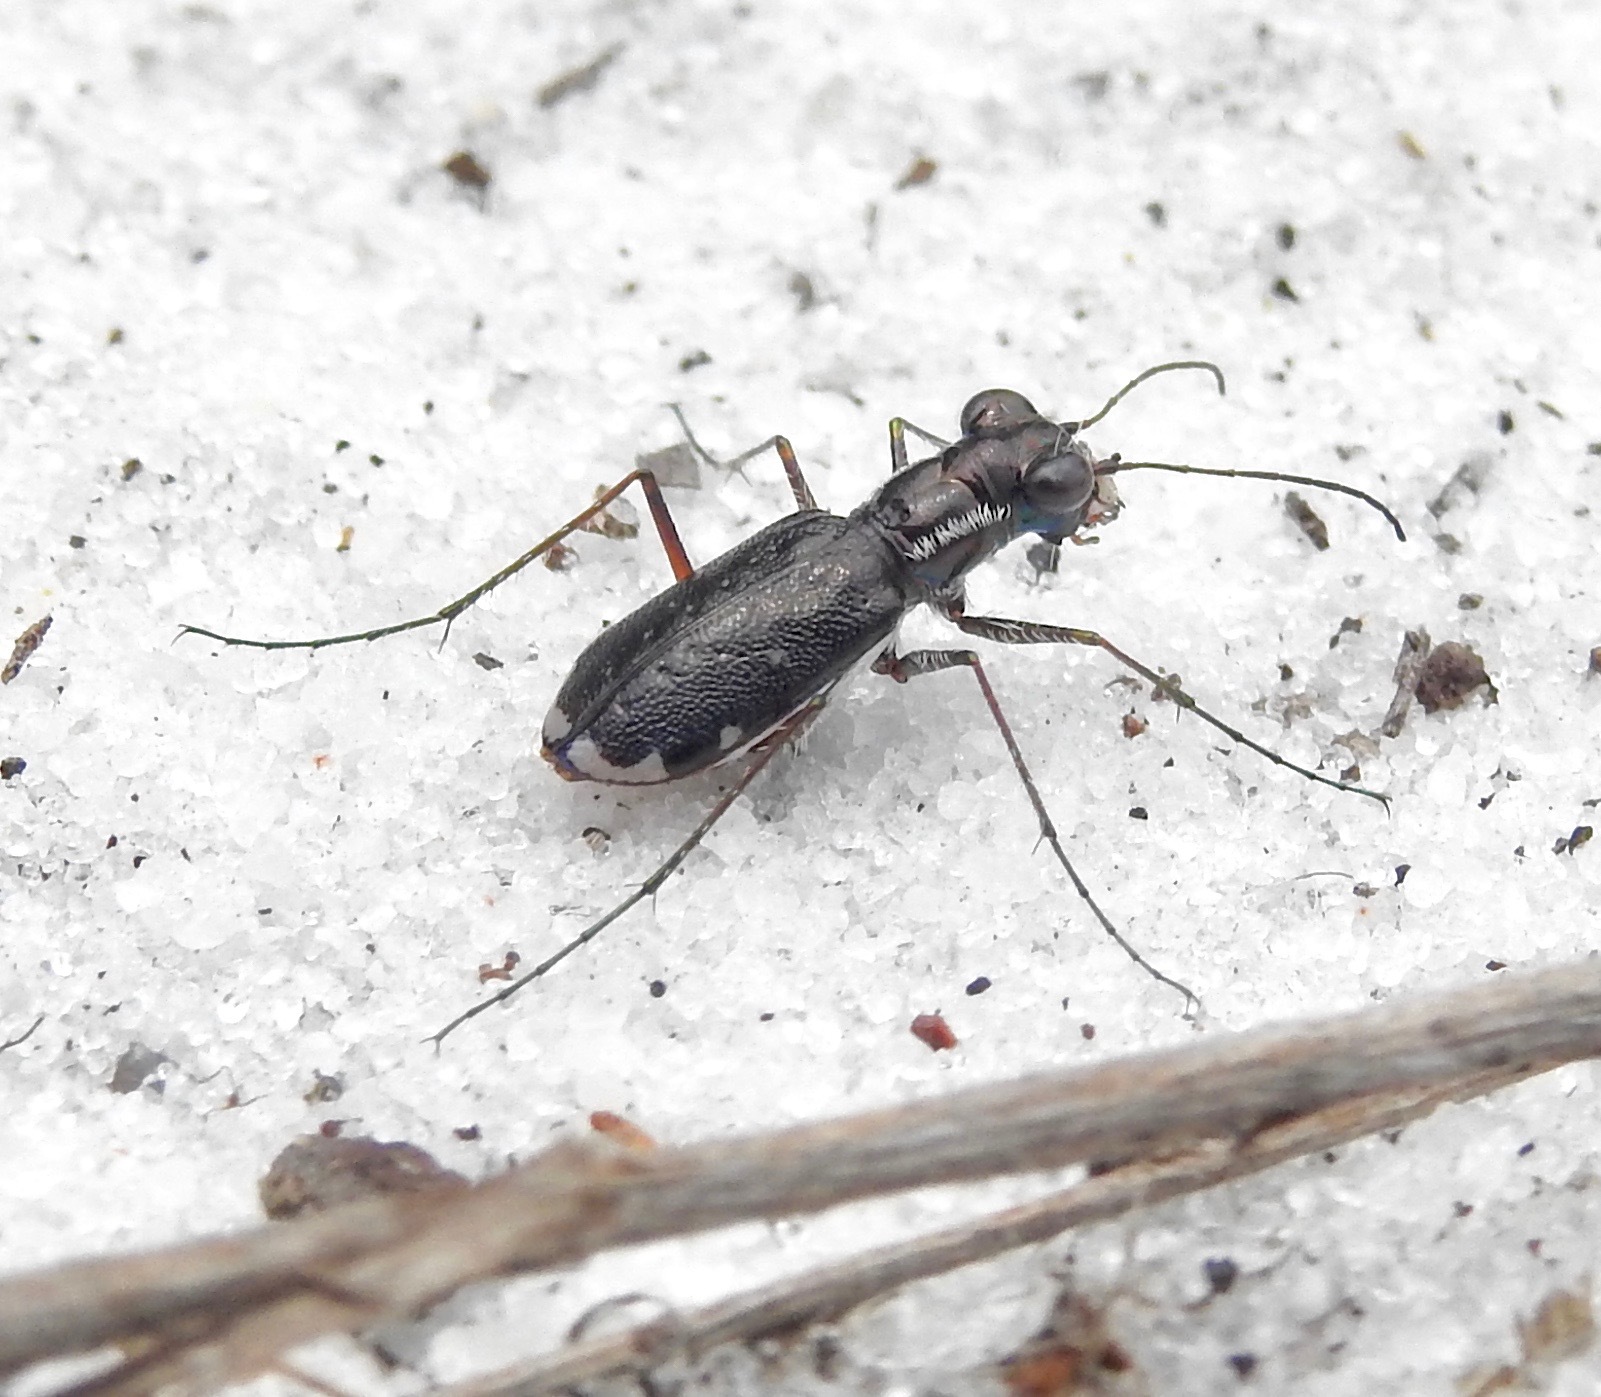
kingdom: Animalia
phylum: Arthropoda
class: Insecta
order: Coleoptera
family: Carabidae
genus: Cicindela
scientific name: Cicindela scabrosa
